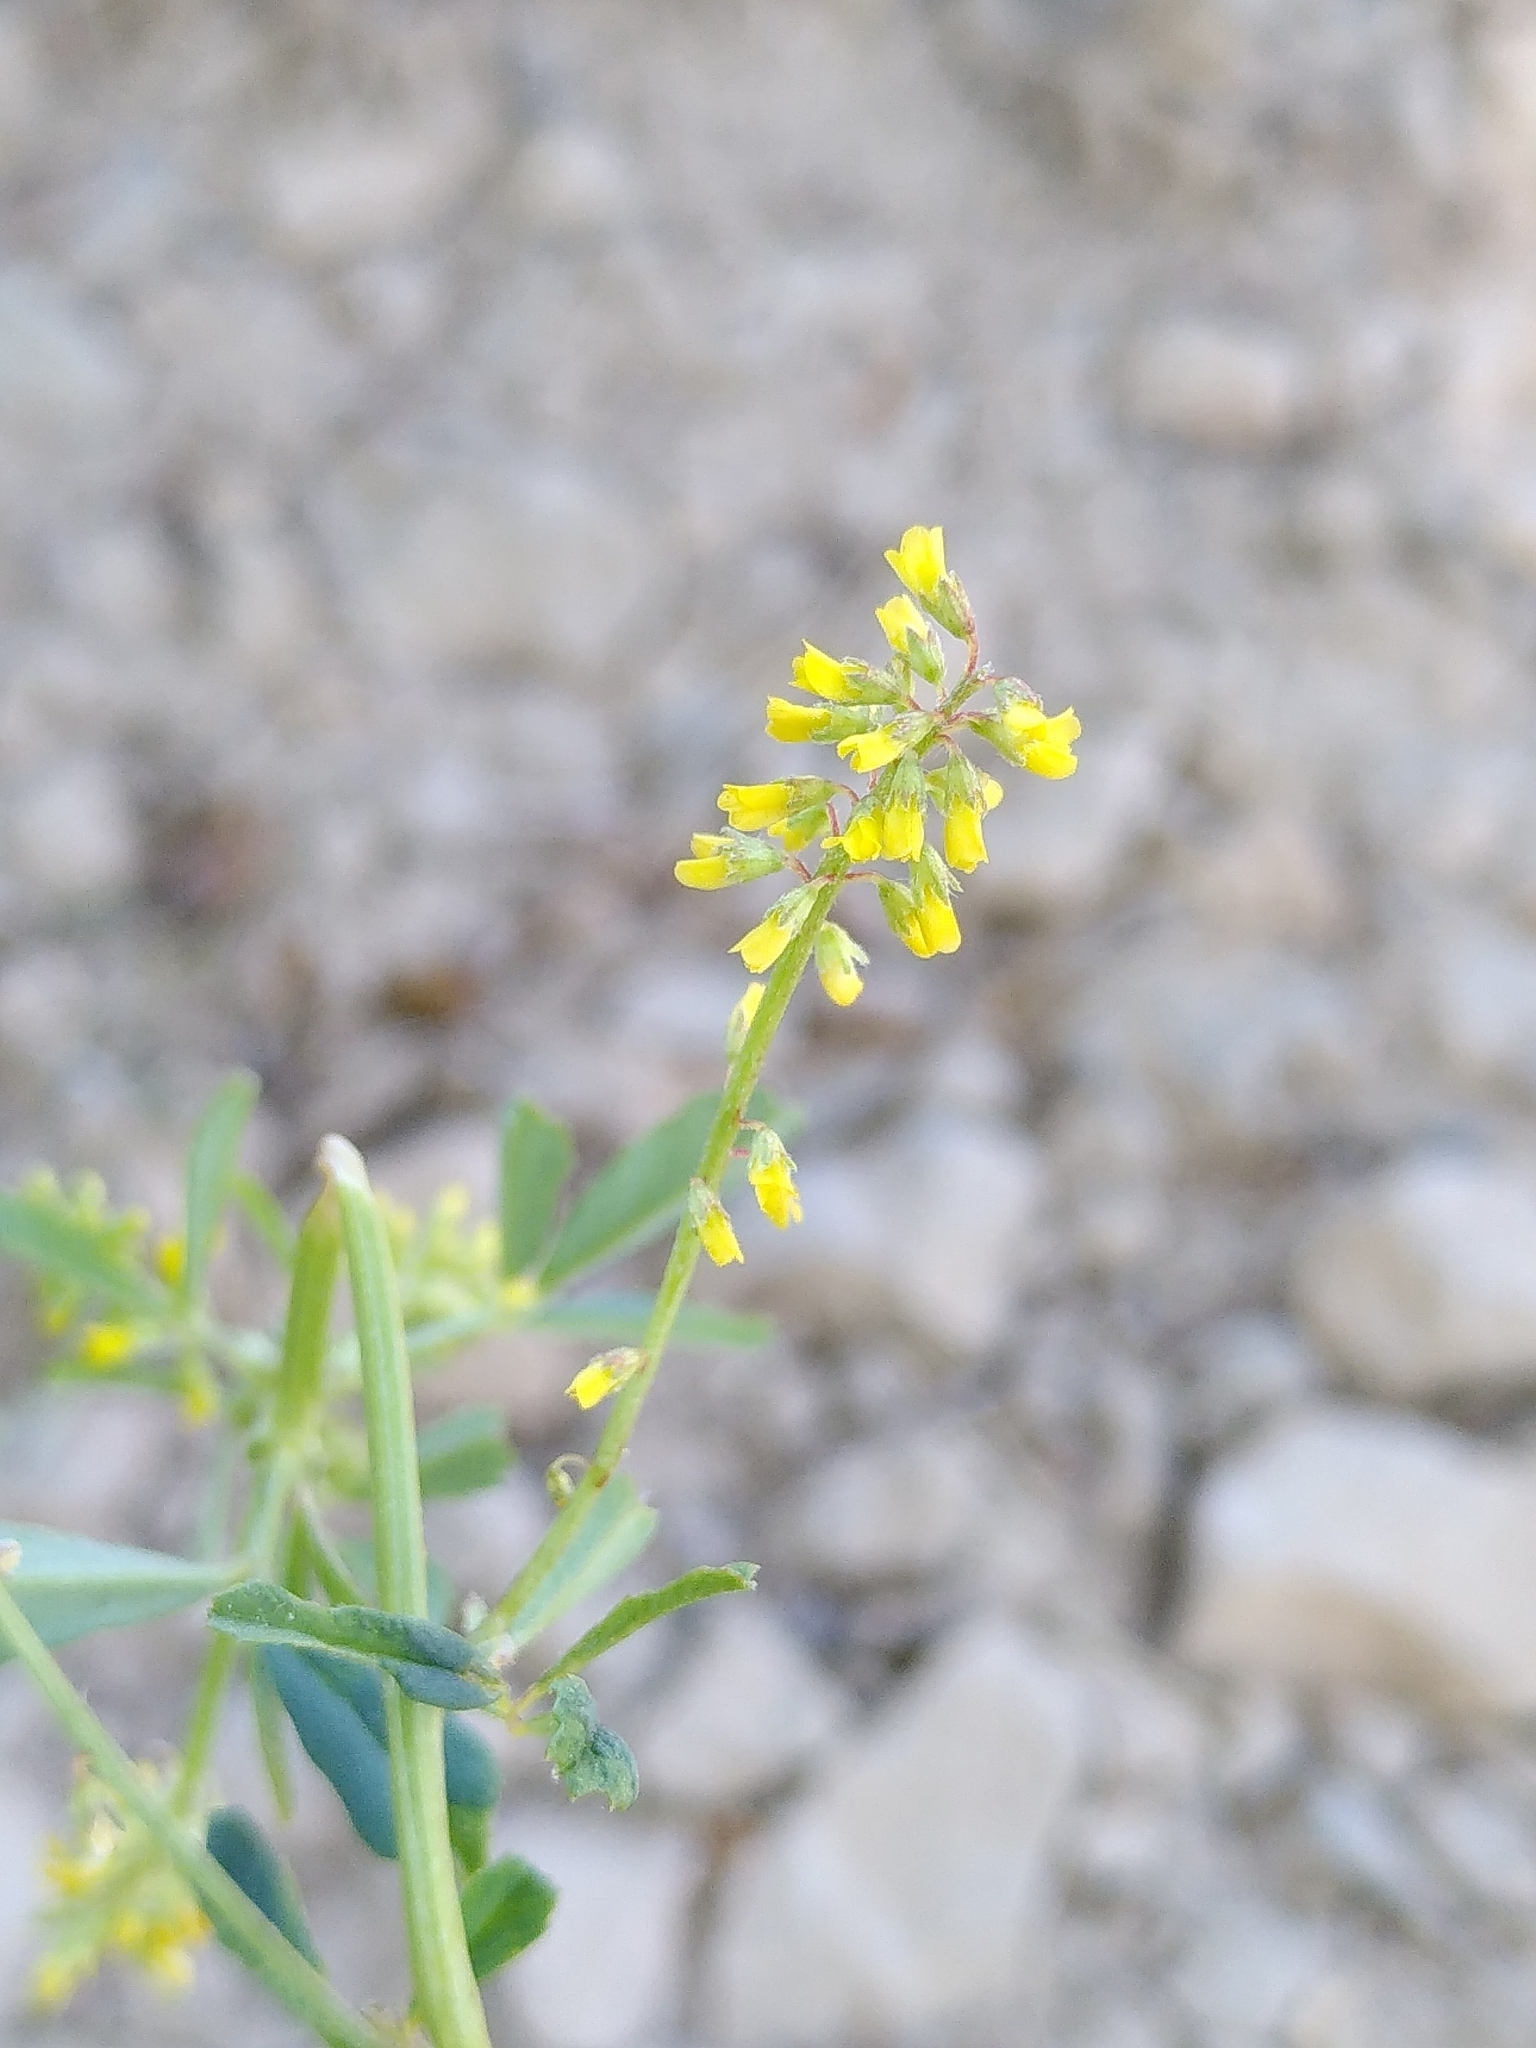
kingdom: Plantae
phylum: Tracheophyta
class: Magnoliopsida
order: Fabales
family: Fabaceae
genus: Melilotus
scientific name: Melilotus indicus
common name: Small melilot
